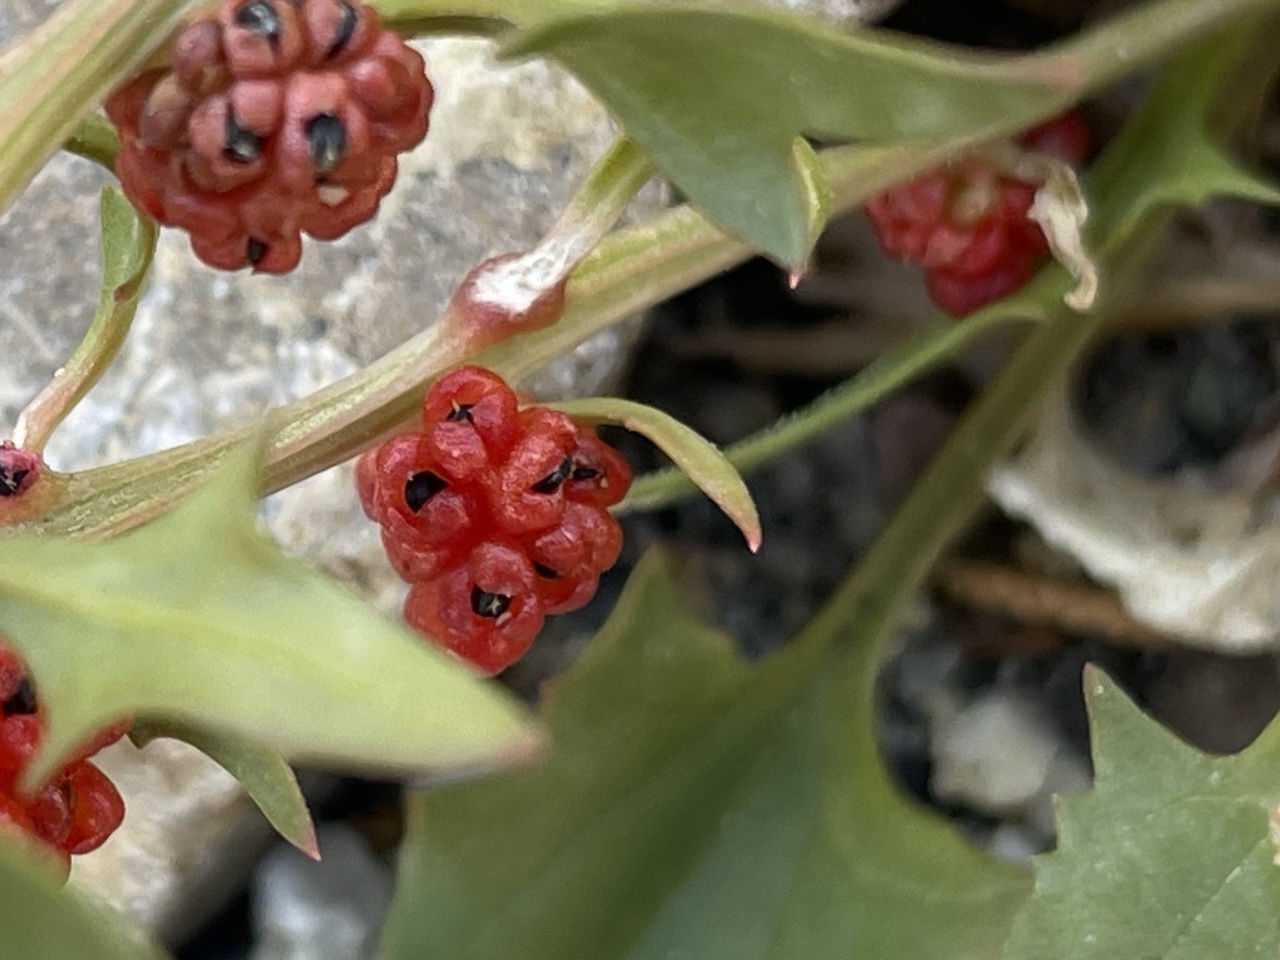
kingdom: Plantae
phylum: Tracheophyta
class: Magnoliopsida
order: Caryophyllales
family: Amaranthaceae
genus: Blitum
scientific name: Blitum virgatum
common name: Strawberry goosefoot
